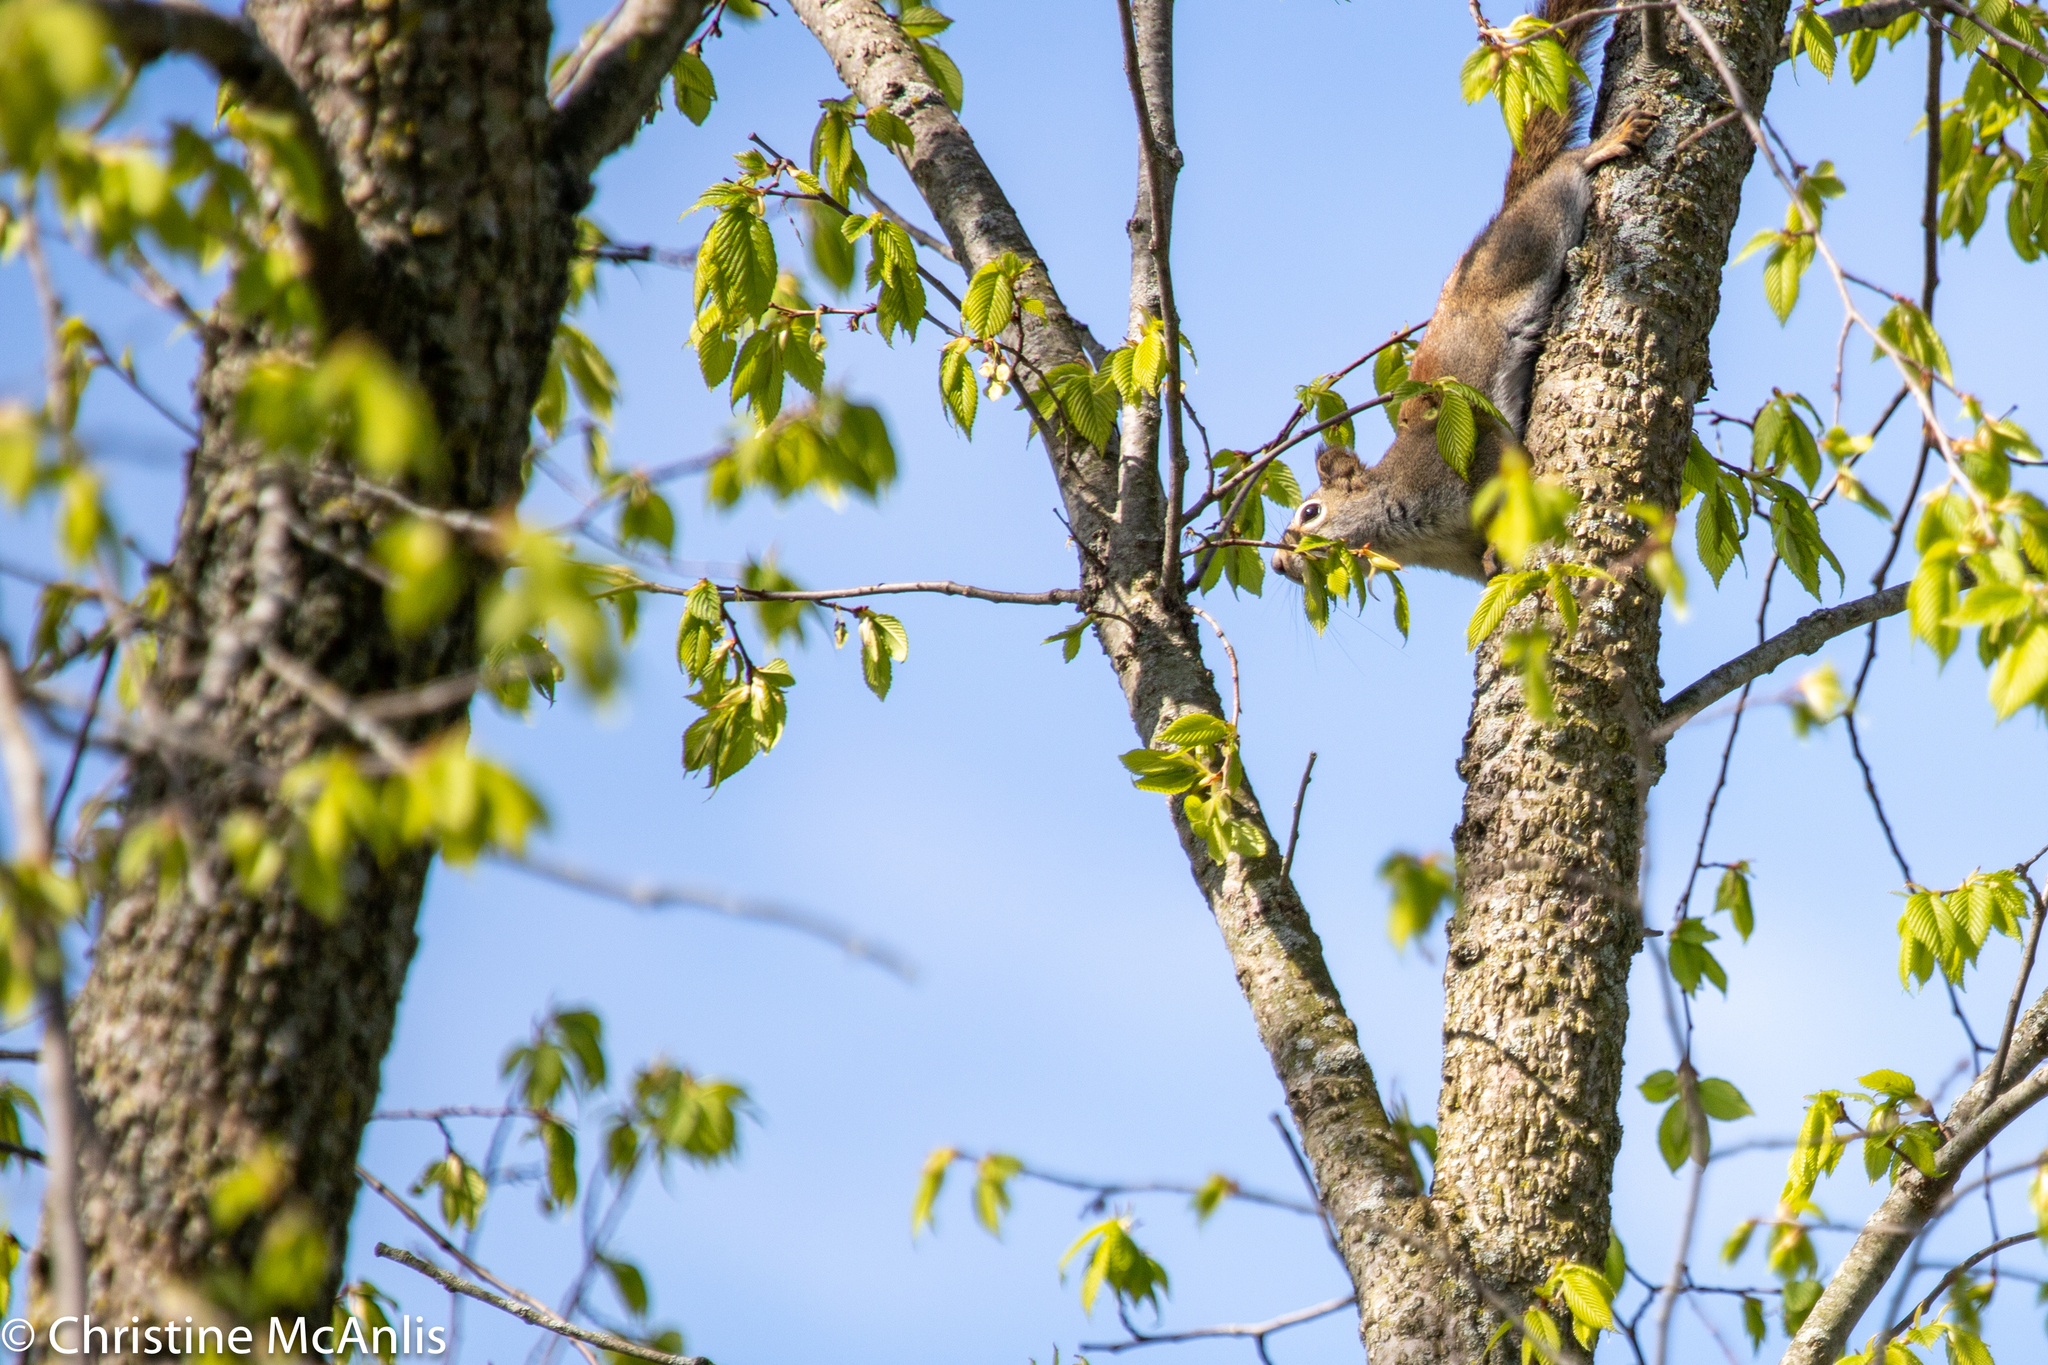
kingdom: Animalia
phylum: Chordata
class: Mammalia
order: Rodentia
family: Sciuridae
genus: Tamiasciurus
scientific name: Tamiasciurus hudsonicus
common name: Red squirrel
